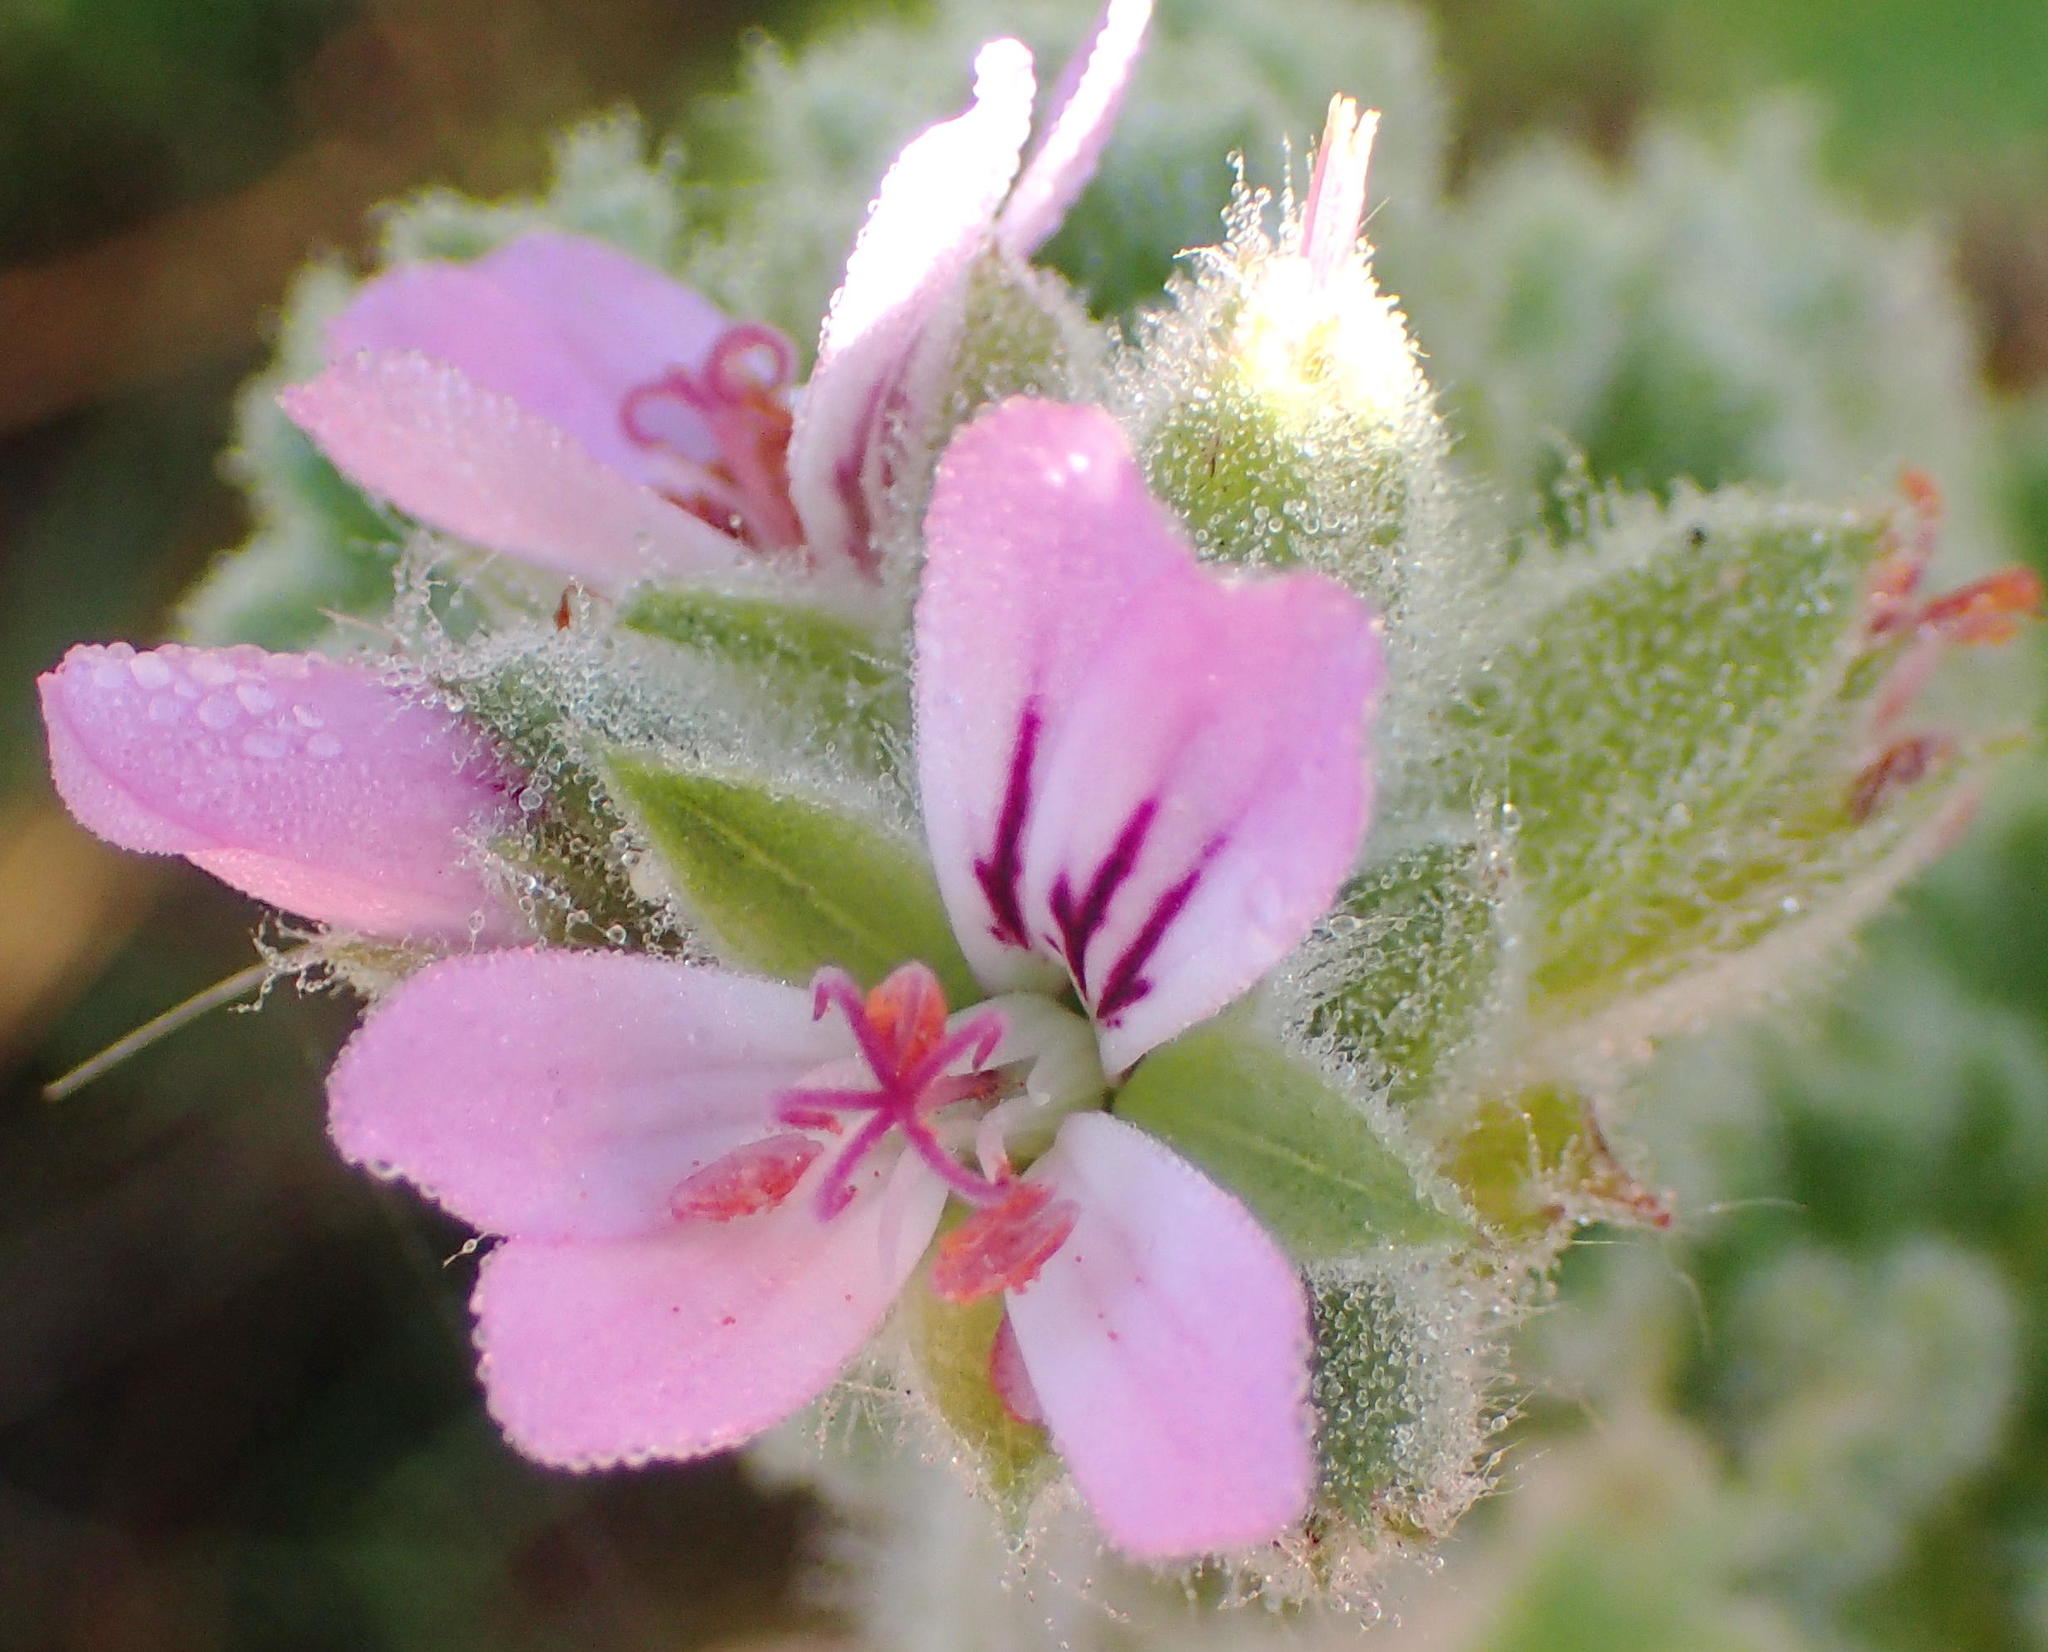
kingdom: Plantae
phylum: Tracheophyta
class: Magnoliopsida
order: Geraniales
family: Geraniaceae
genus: Pelargonium
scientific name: Pelargonium capitatum
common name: Rose scented geranium
